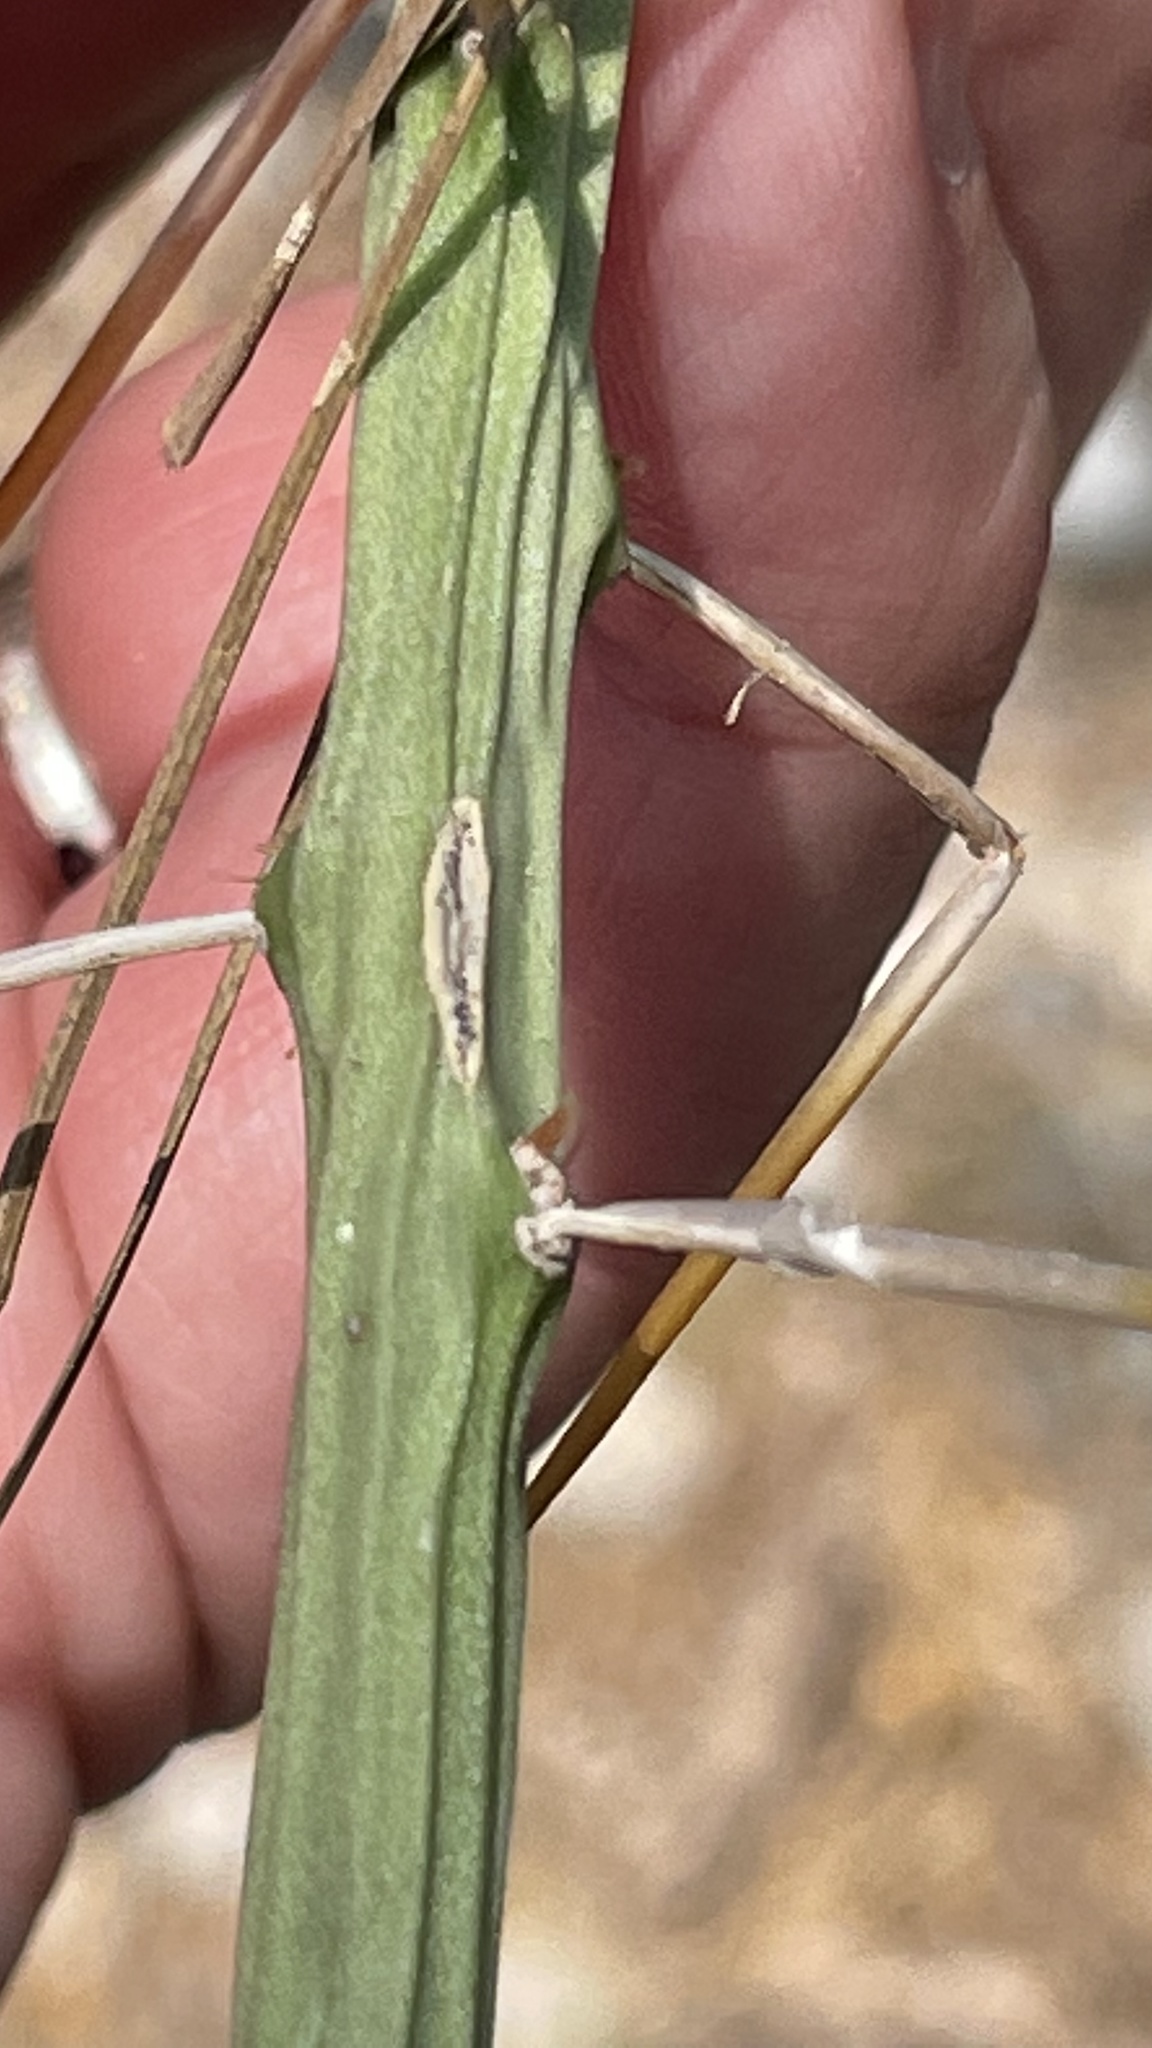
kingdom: Plantae
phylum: Tracheophyta
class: Magnoliopsida
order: Caryophyllales
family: Cactaceae
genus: Cylindropuntia
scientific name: Cylindropuntia leptocaulis
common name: Christmas cactus
